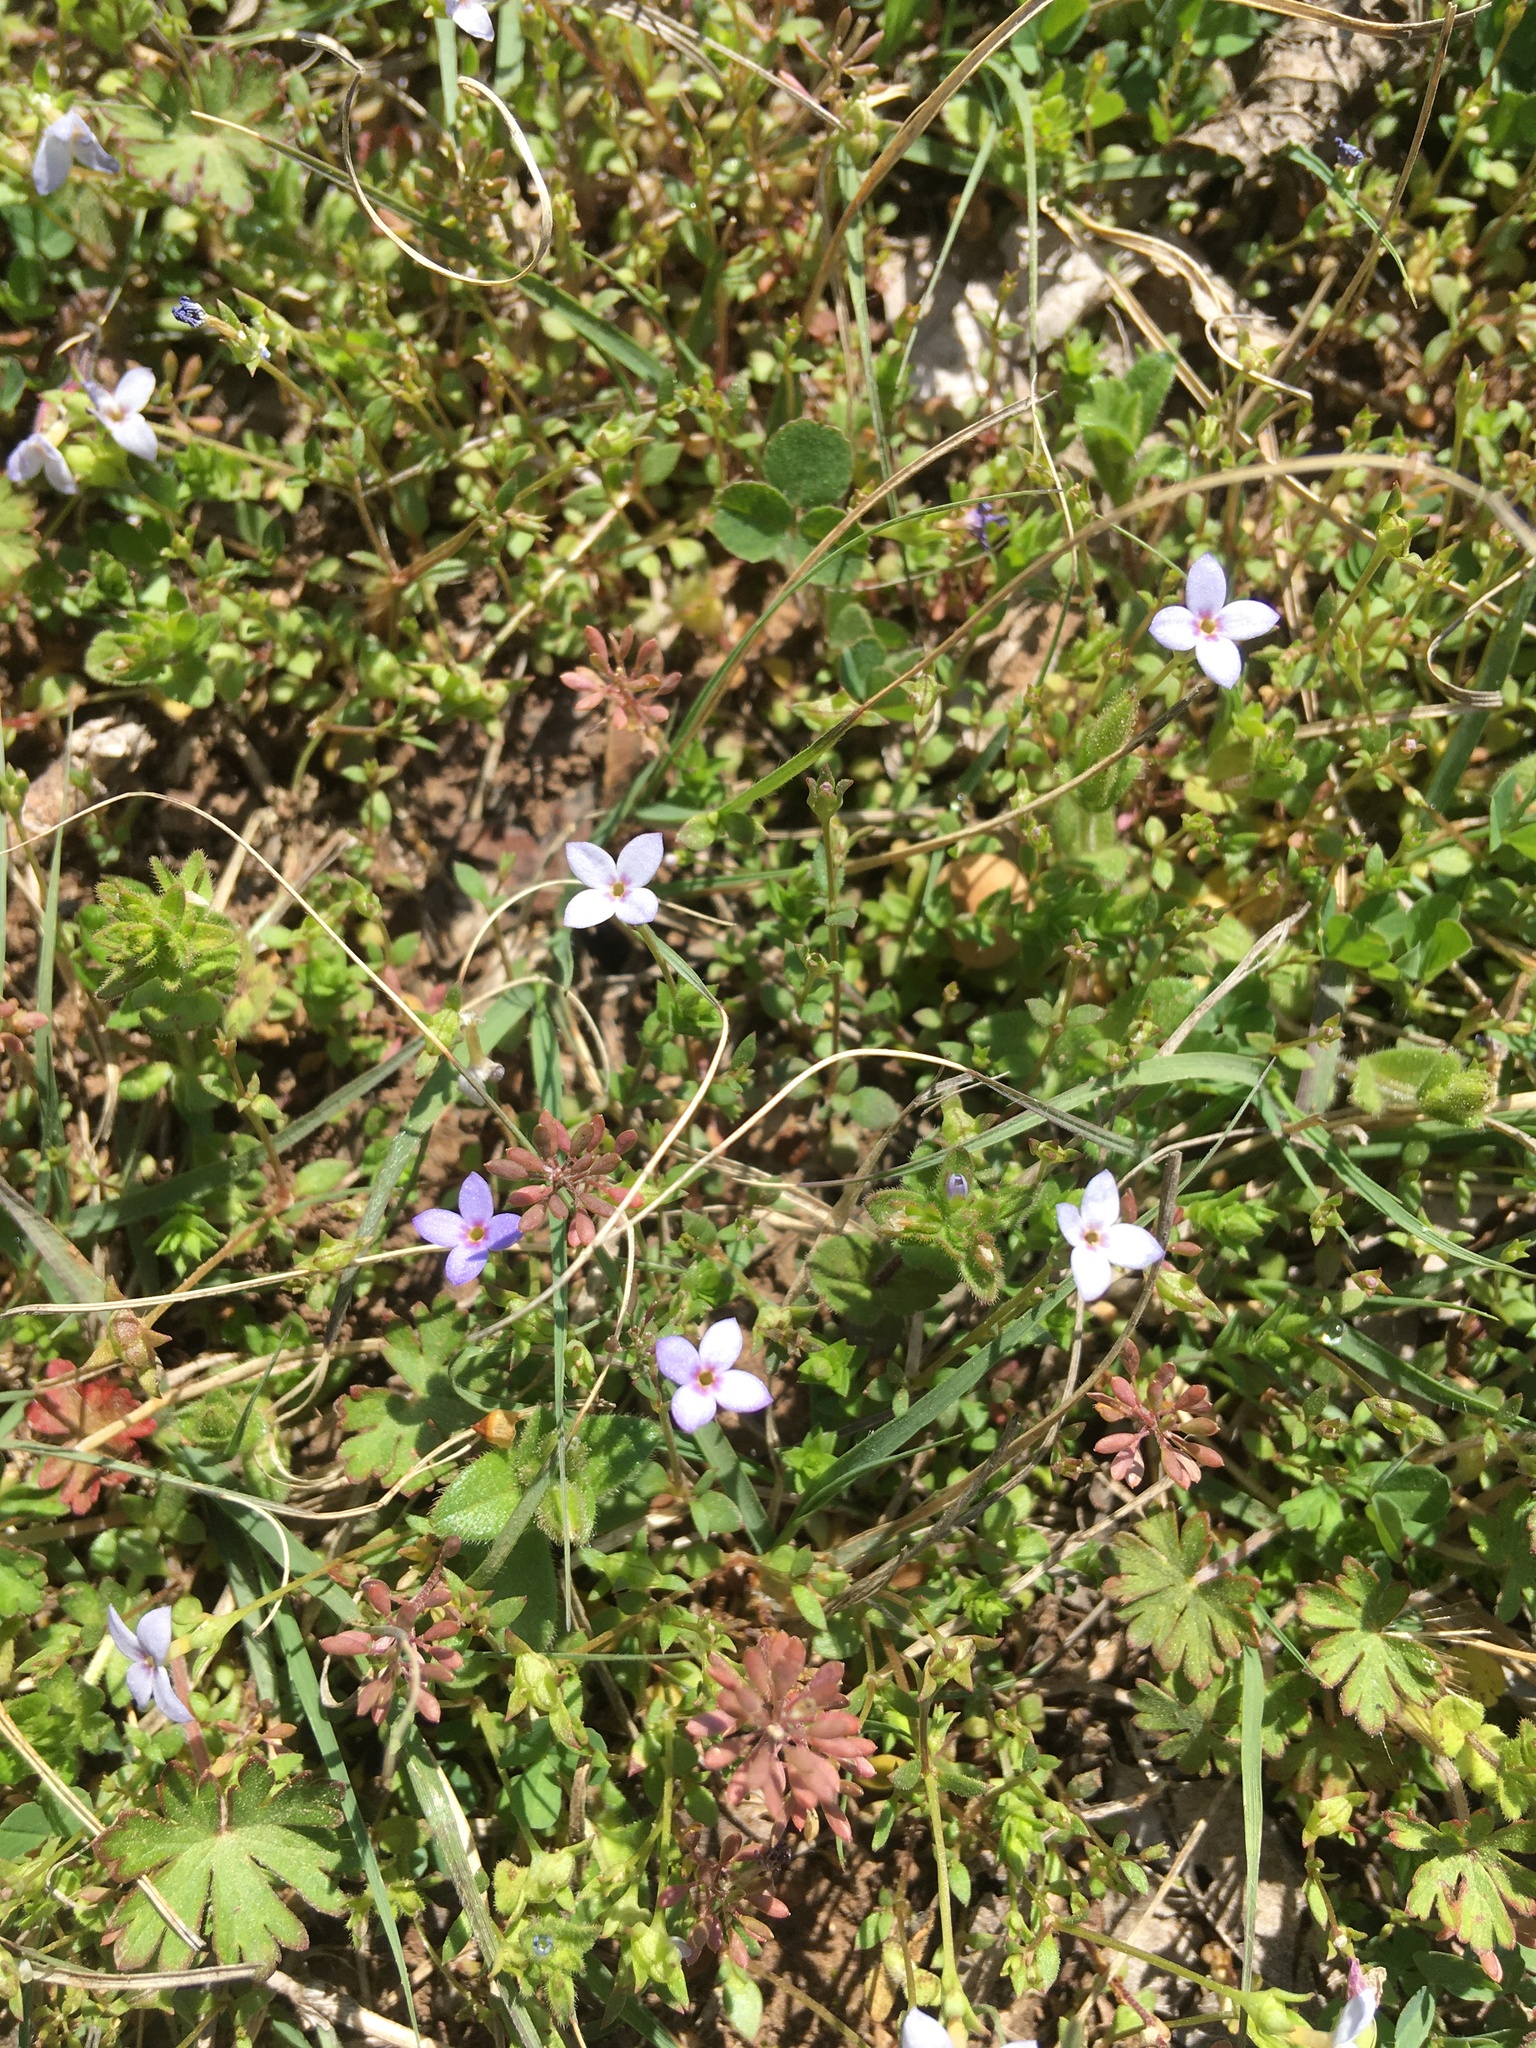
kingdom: Plantae
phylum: Tracheophyta
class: Magnoliopsida
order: Gentianales
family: Rubiaceae
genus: Houstonia
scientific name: Houstonia pusilla
